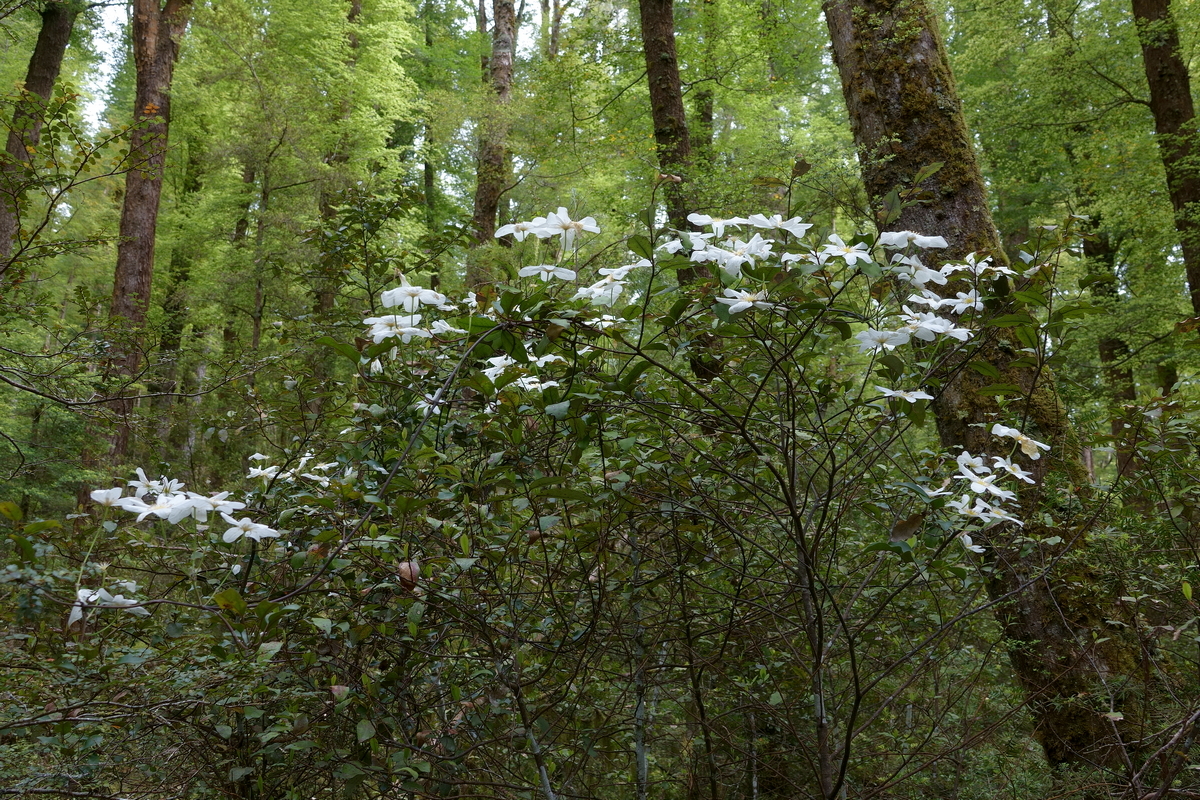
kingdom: Plantae
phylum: Tracheophyta
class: Magnoliopsida
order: Ranunculales
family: Ranunculaceae
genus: Clematis
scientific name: Clematis paniculata
